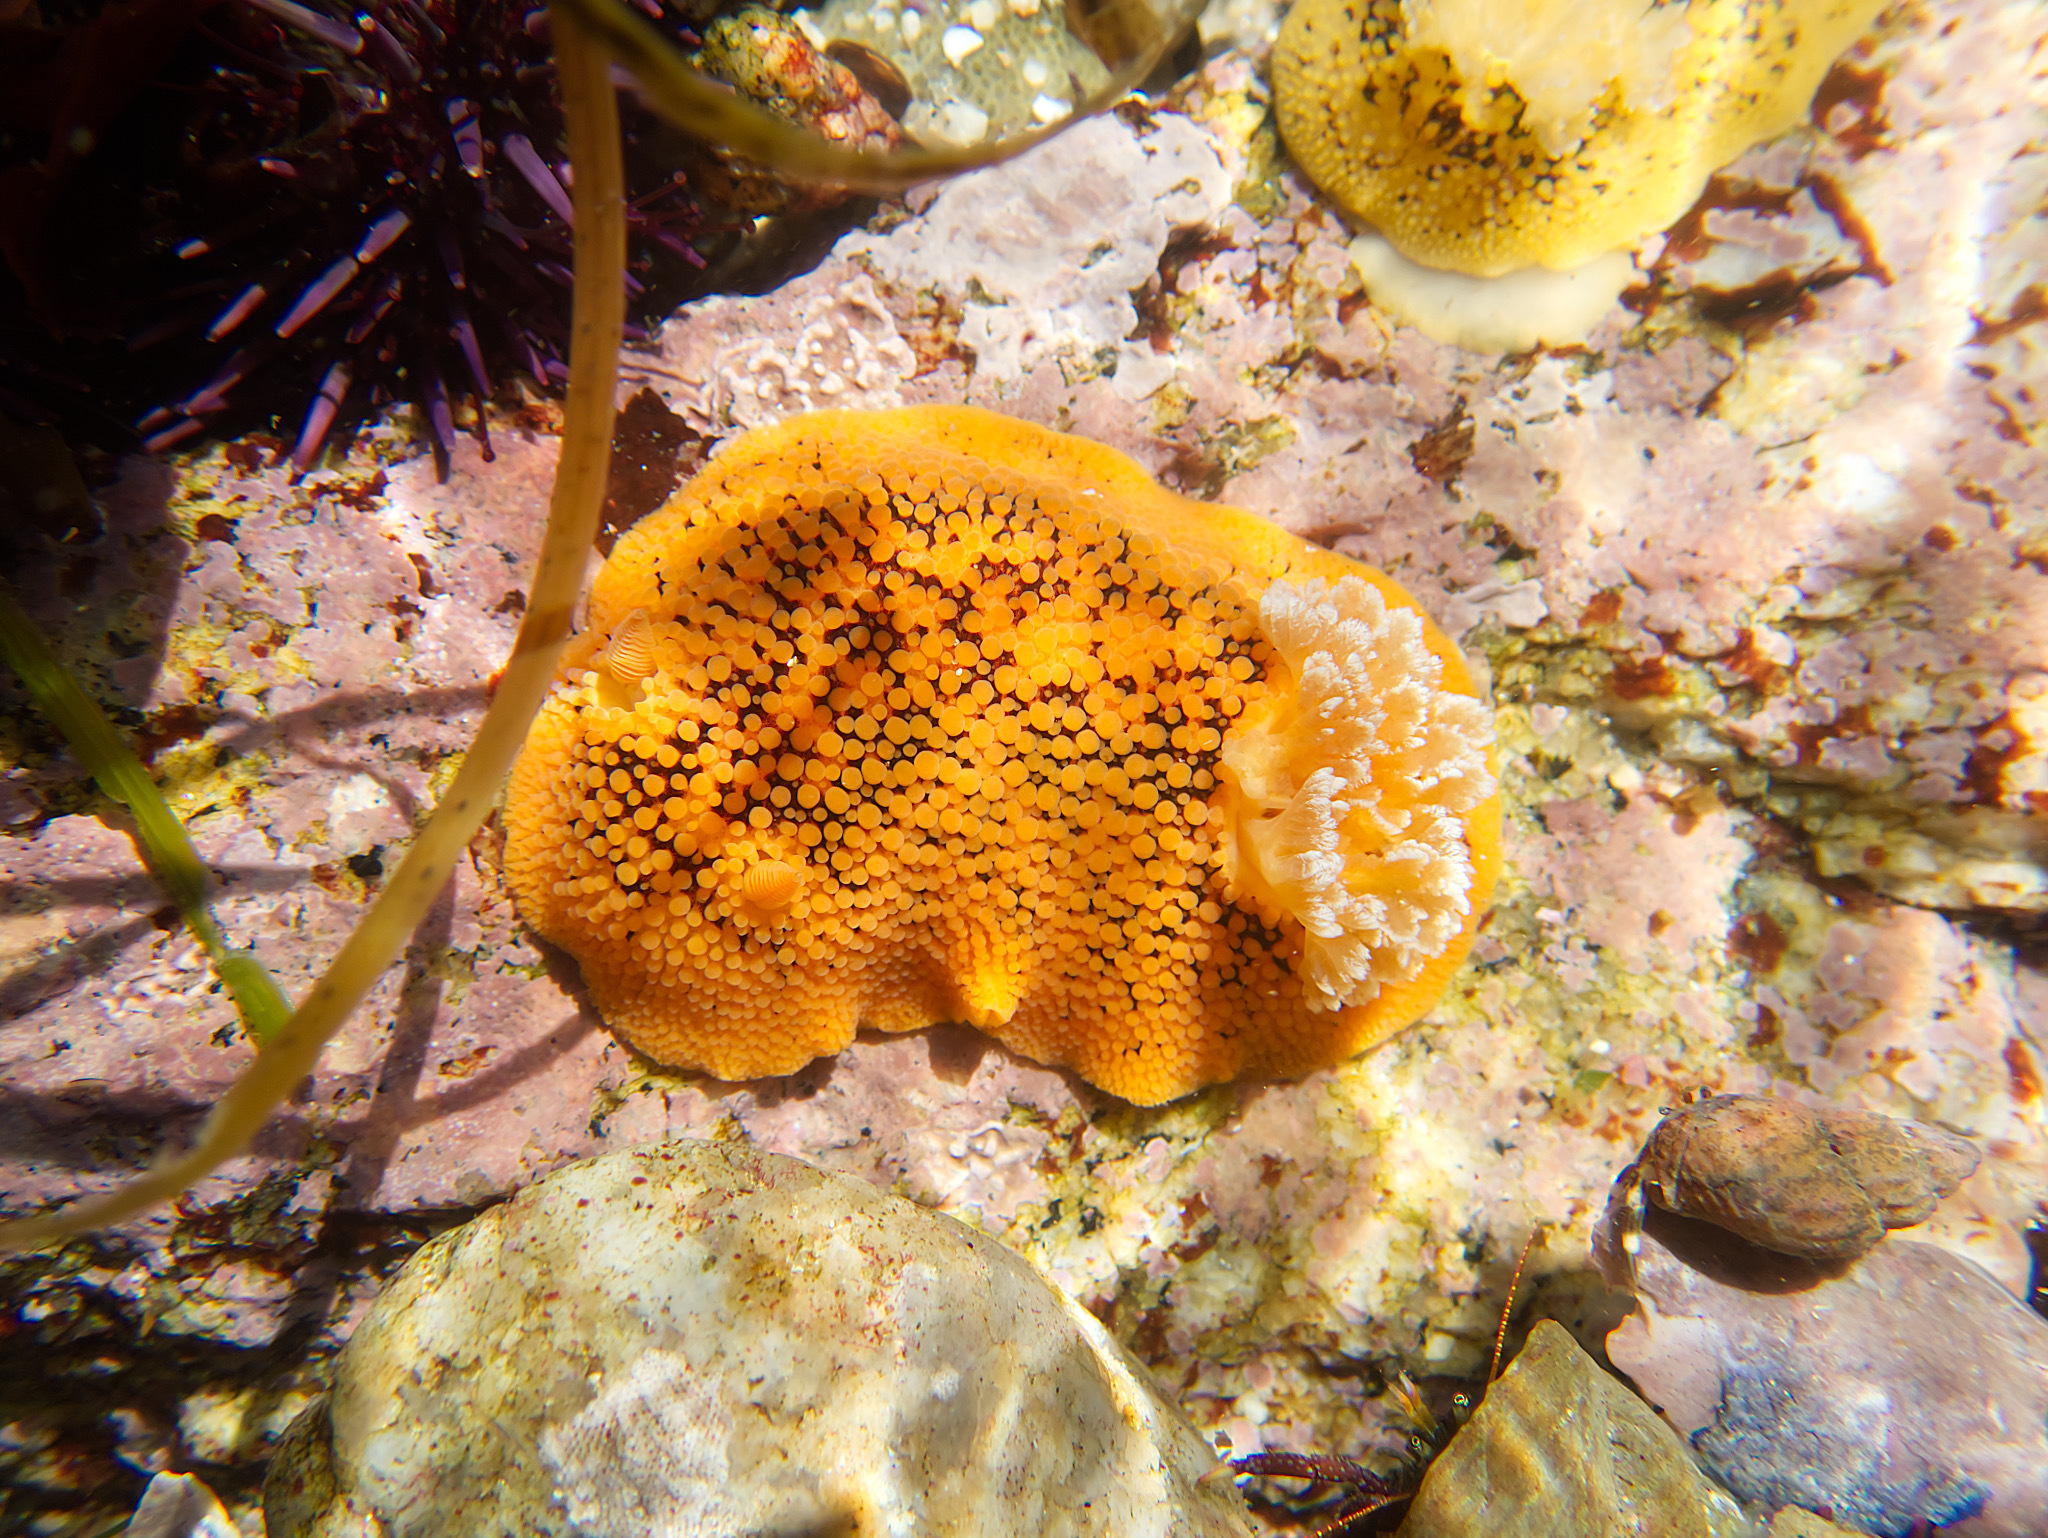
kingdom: Animalia
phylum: Mollusca
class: Gastropoda
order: Nudibranchia
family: Discodorididae
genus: Peltodoris
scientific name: Peltodoris nobilis
